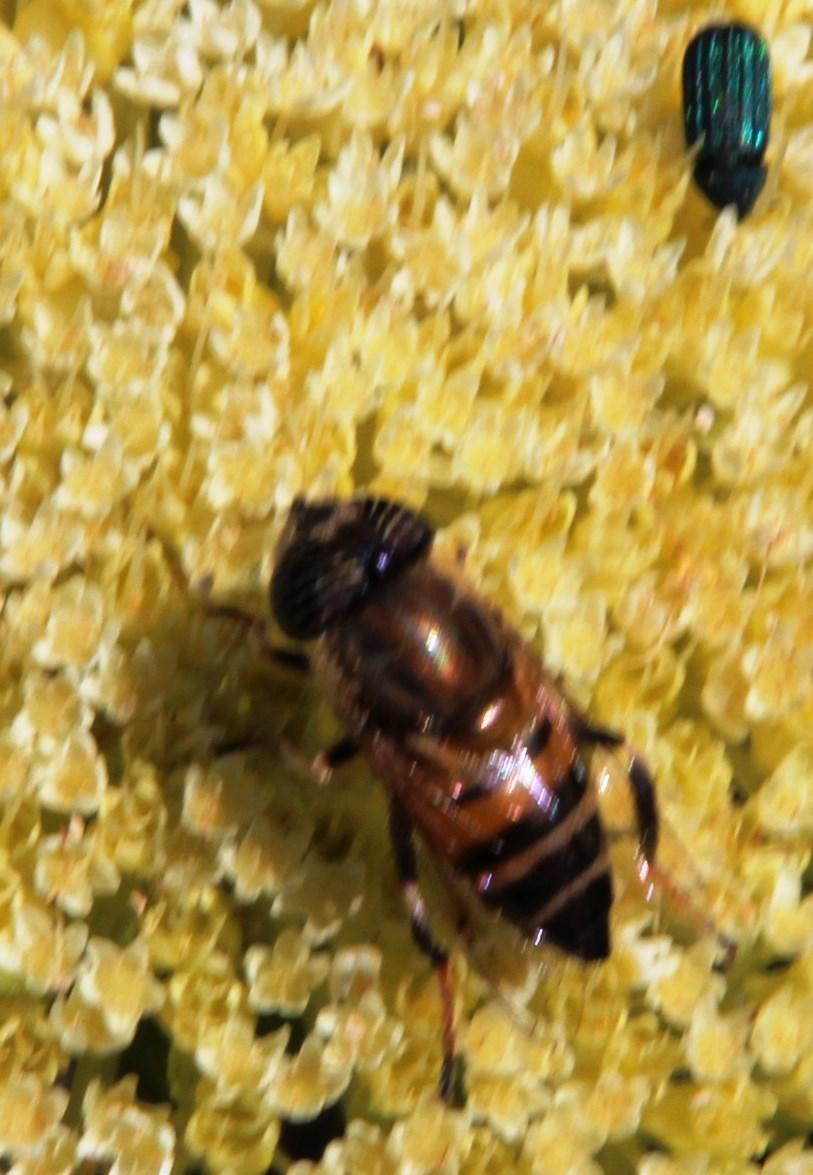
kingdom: Animalia
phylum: Arthropoda
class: Insecta
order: Diptera
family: Syrphidae
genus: Eristalinus
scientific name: Eristalinus taeniops
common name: Syrphid fly
